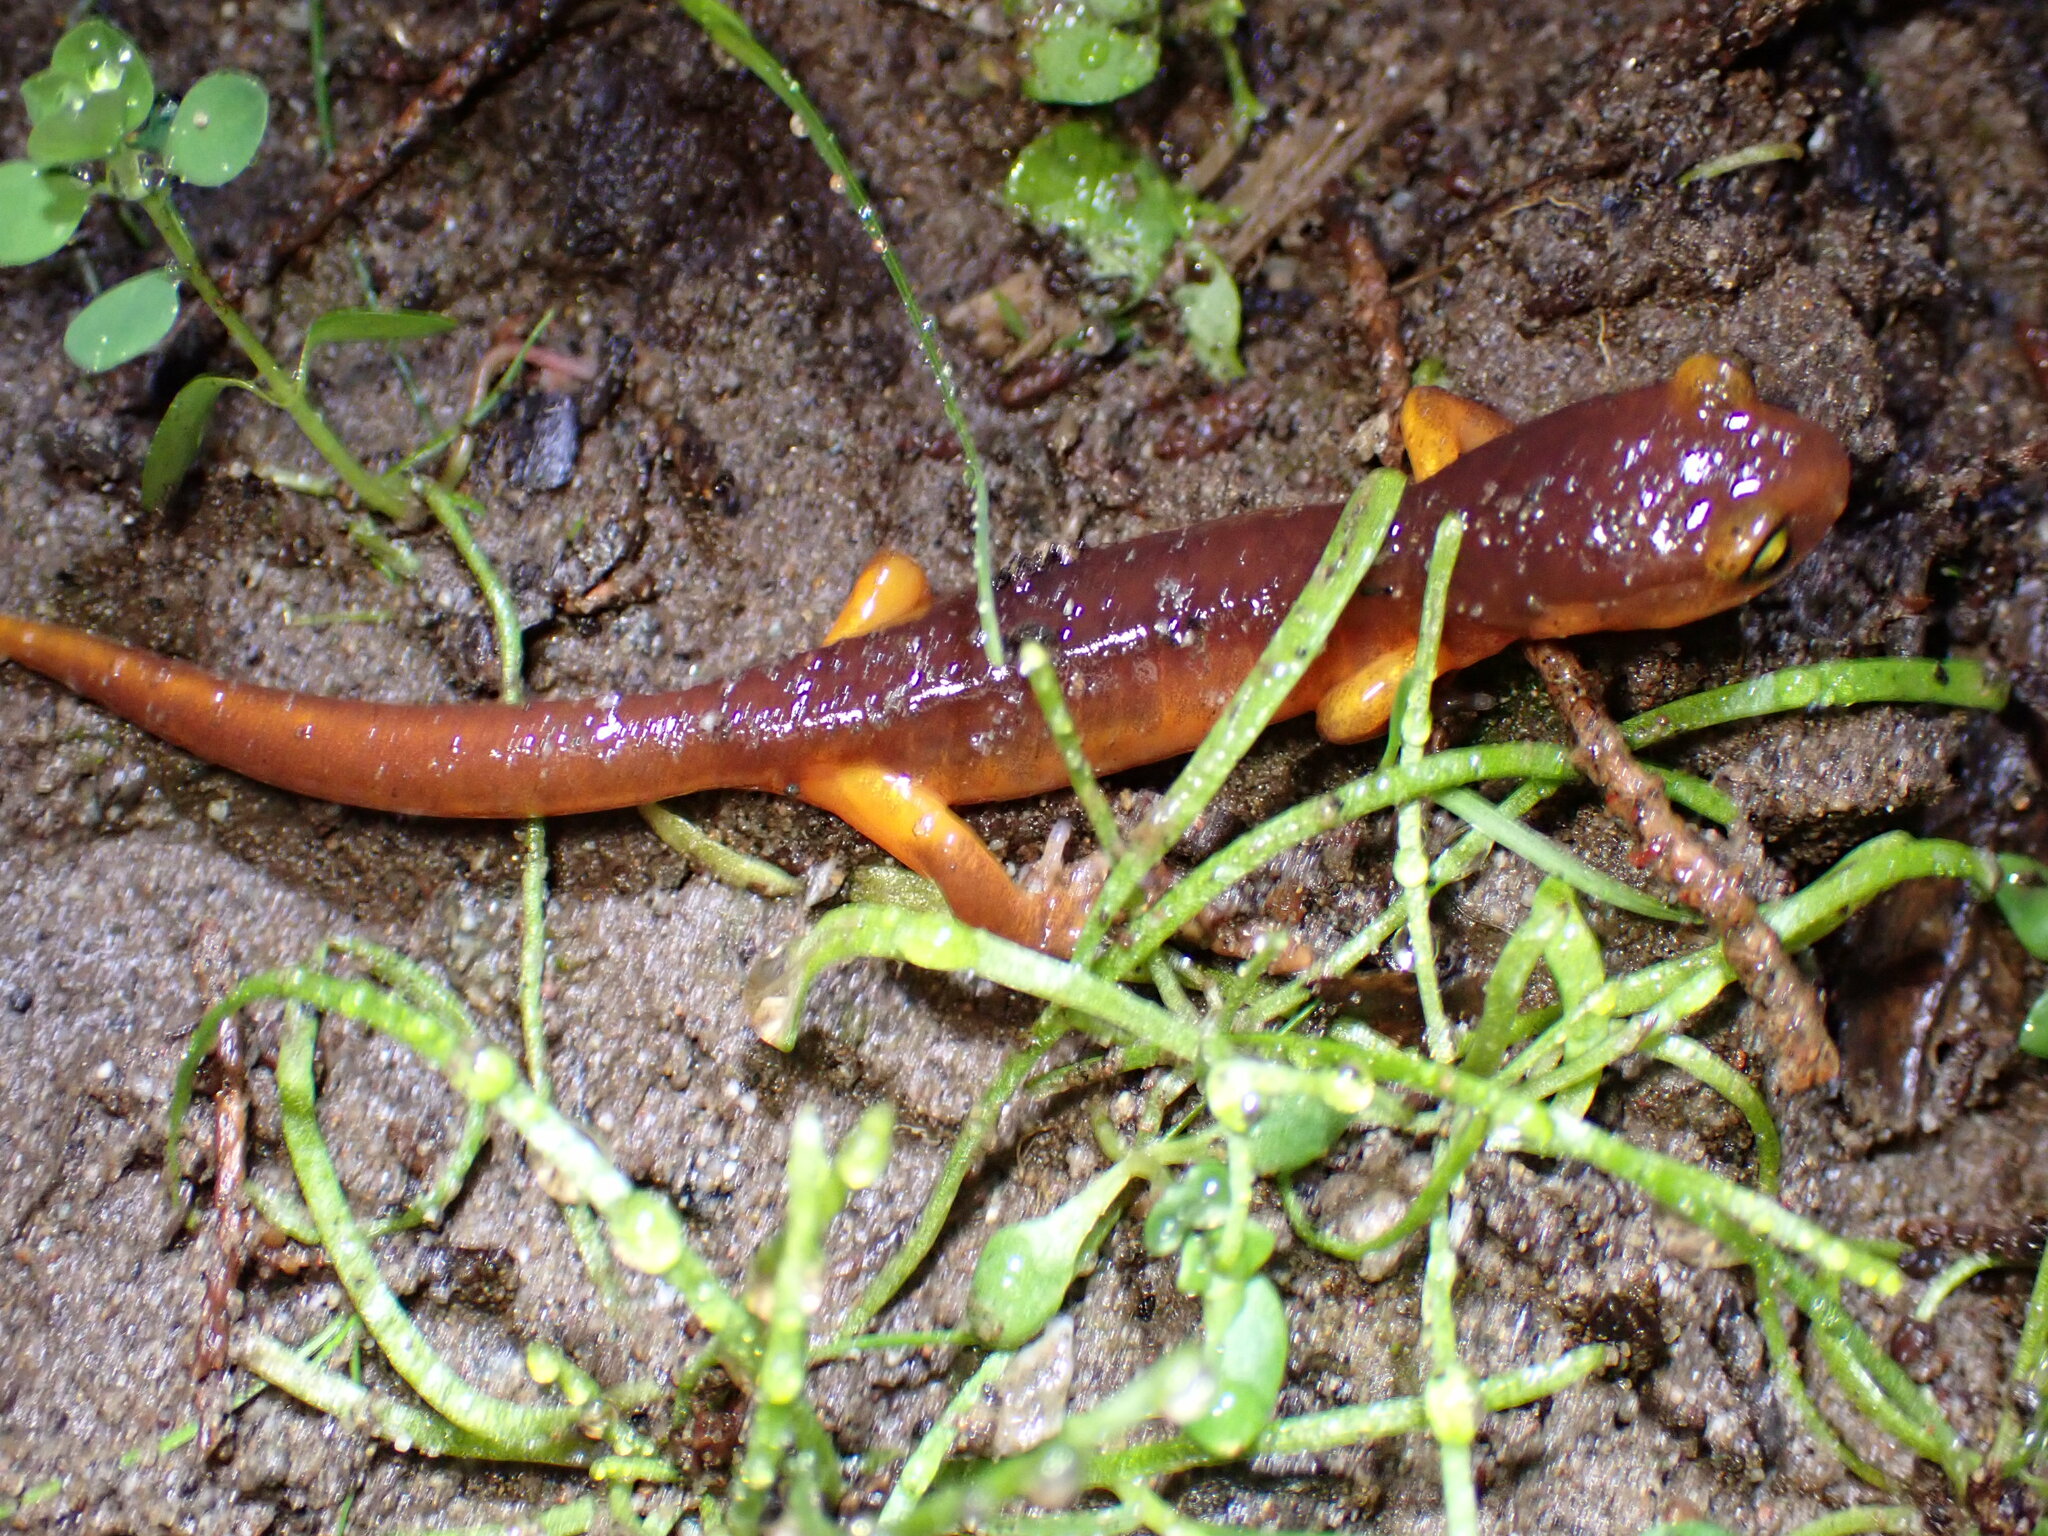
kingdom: Animalia
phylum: Chordata
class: Amphibia
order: Caudata
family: Plethodontidae
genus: Ensatina
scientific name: Ensatina eschscholtzii
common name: Ensatina
